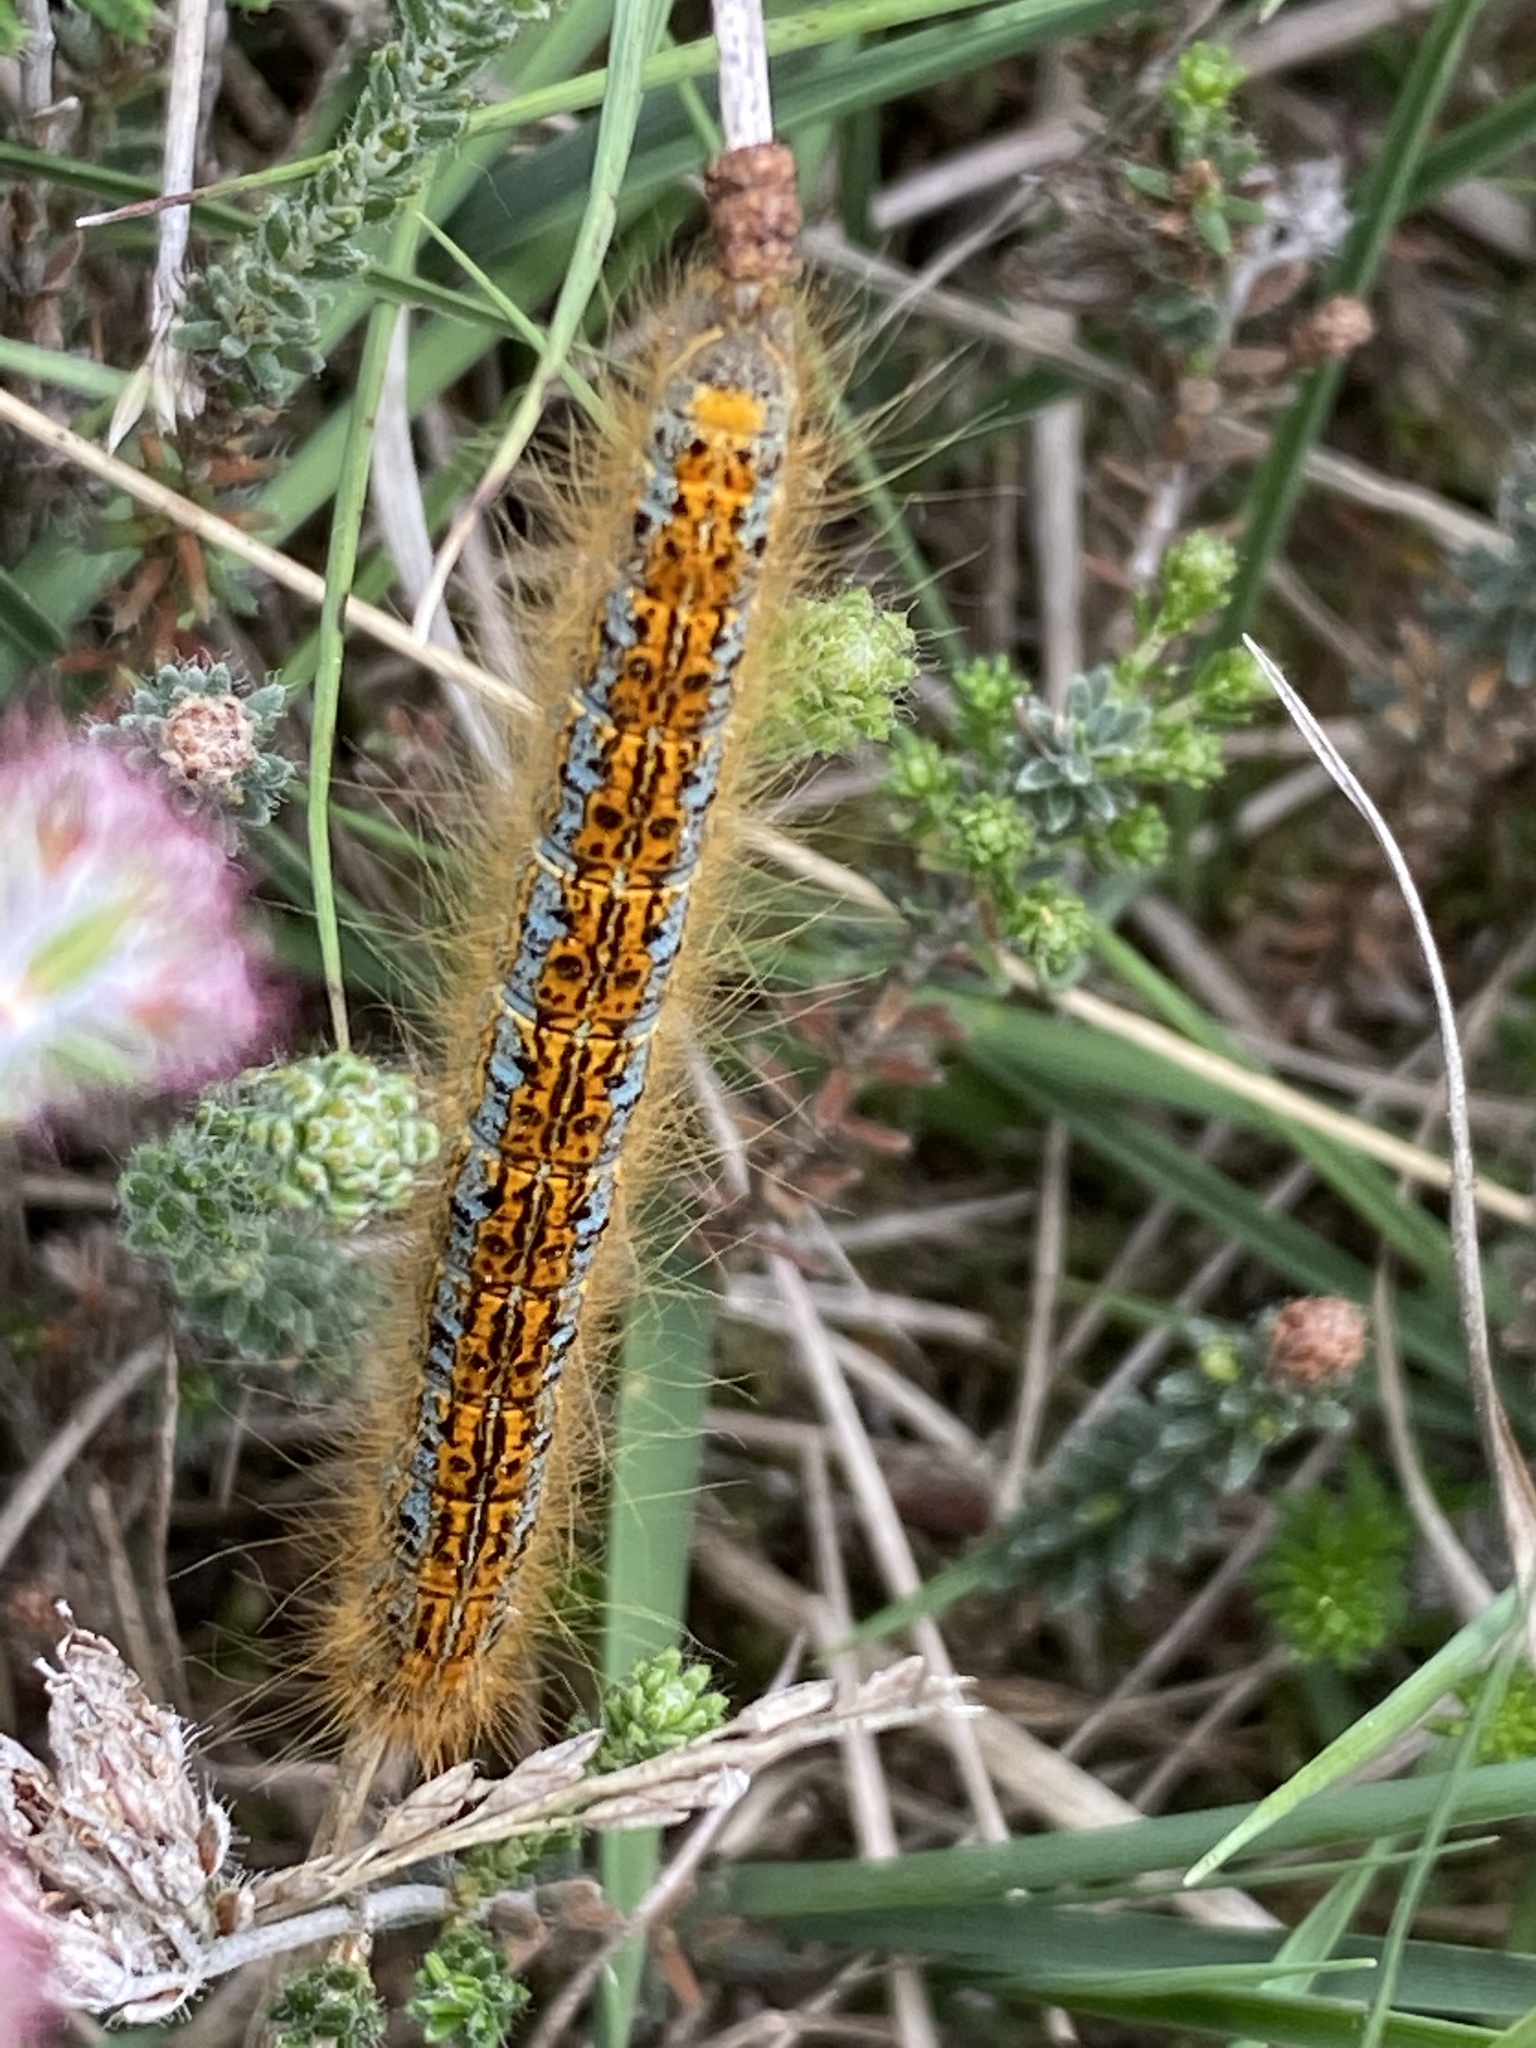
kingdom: Animalia
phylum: Arthropoda
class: Insecta
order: Lepidoptera
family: Lasiocampidae
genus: Malacosoma
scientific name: Malacosoma castrense
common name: Ground lackey
